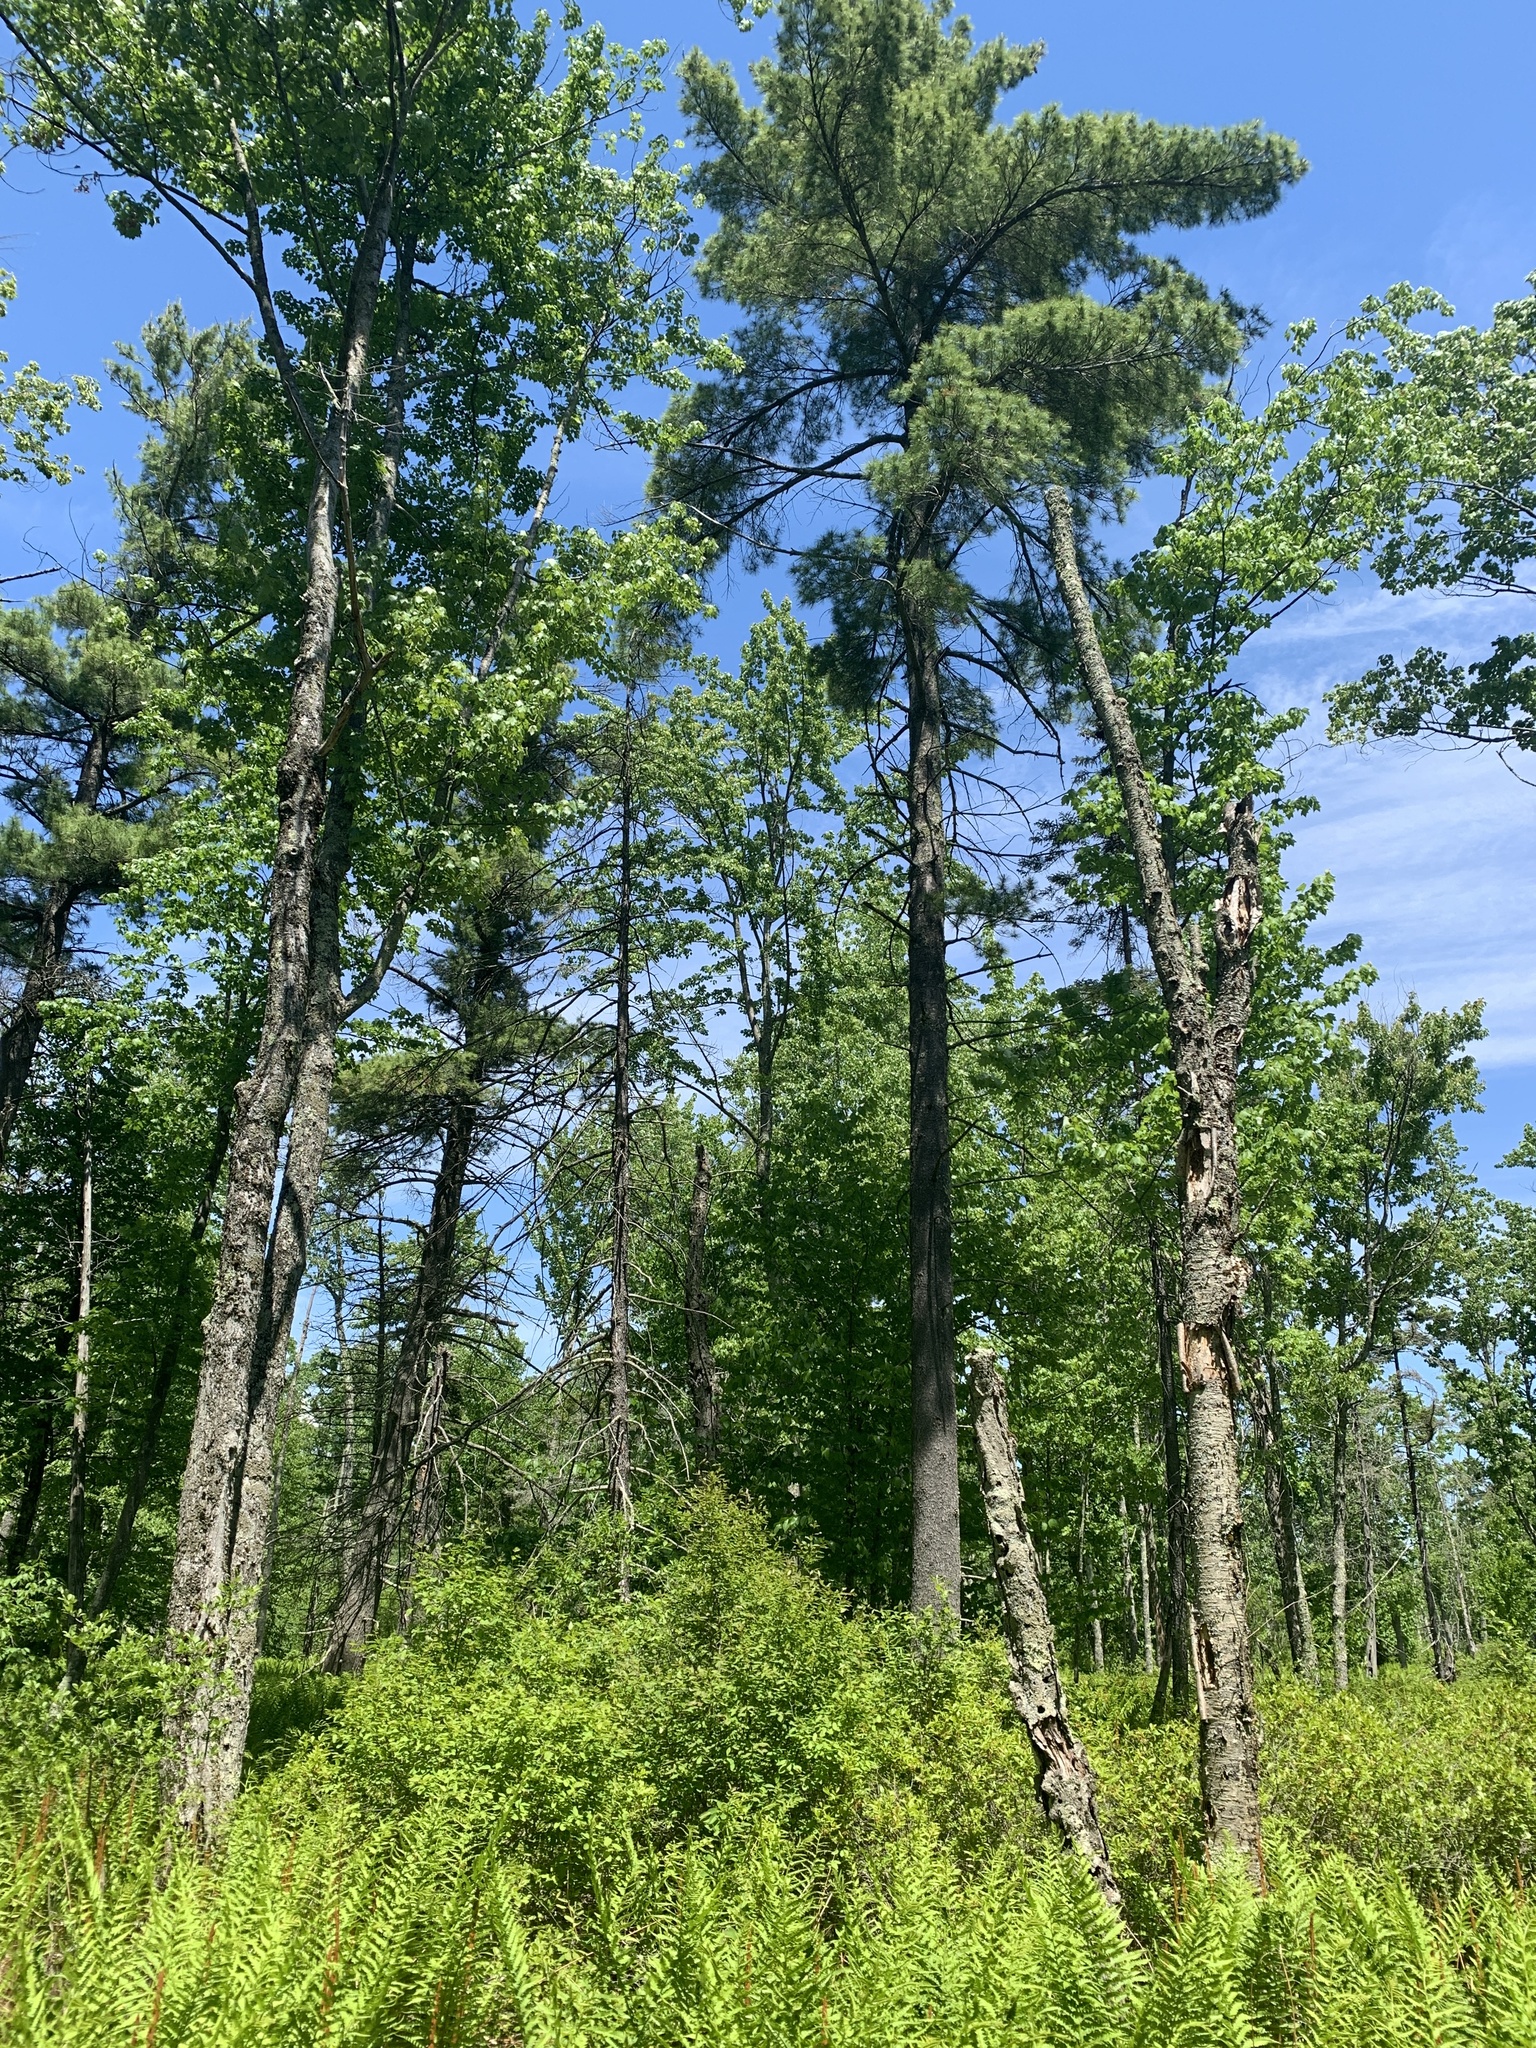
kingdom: Plantae
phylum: Tracheophyta
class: Pinopsida
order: Pinales
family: Pinaceae
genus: Pinus
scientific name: Pinus strobus
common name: Weymouth pine
